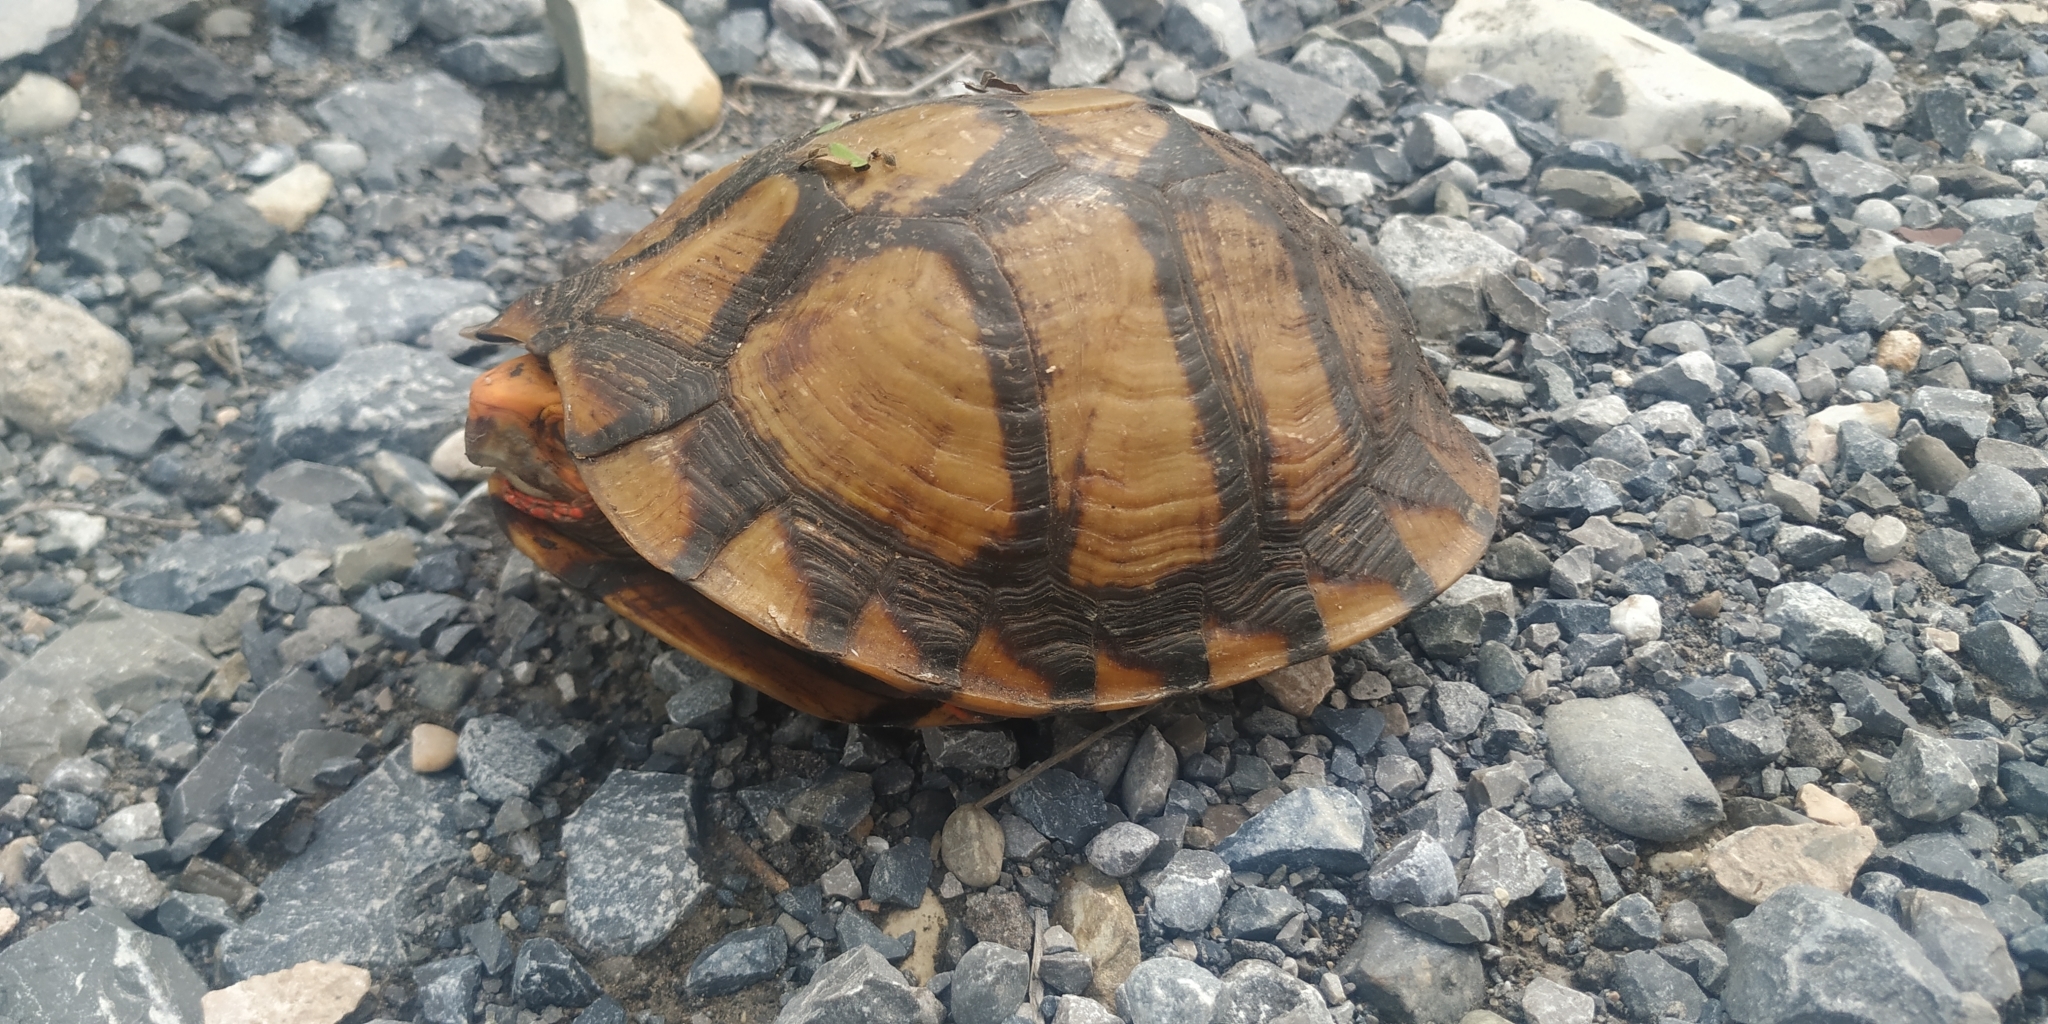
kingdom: Animalia
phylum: Chordata
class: Testudines
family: Emydidae
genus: Terrapene
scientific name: Terrapene mexicana
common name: Mexican box turtle
